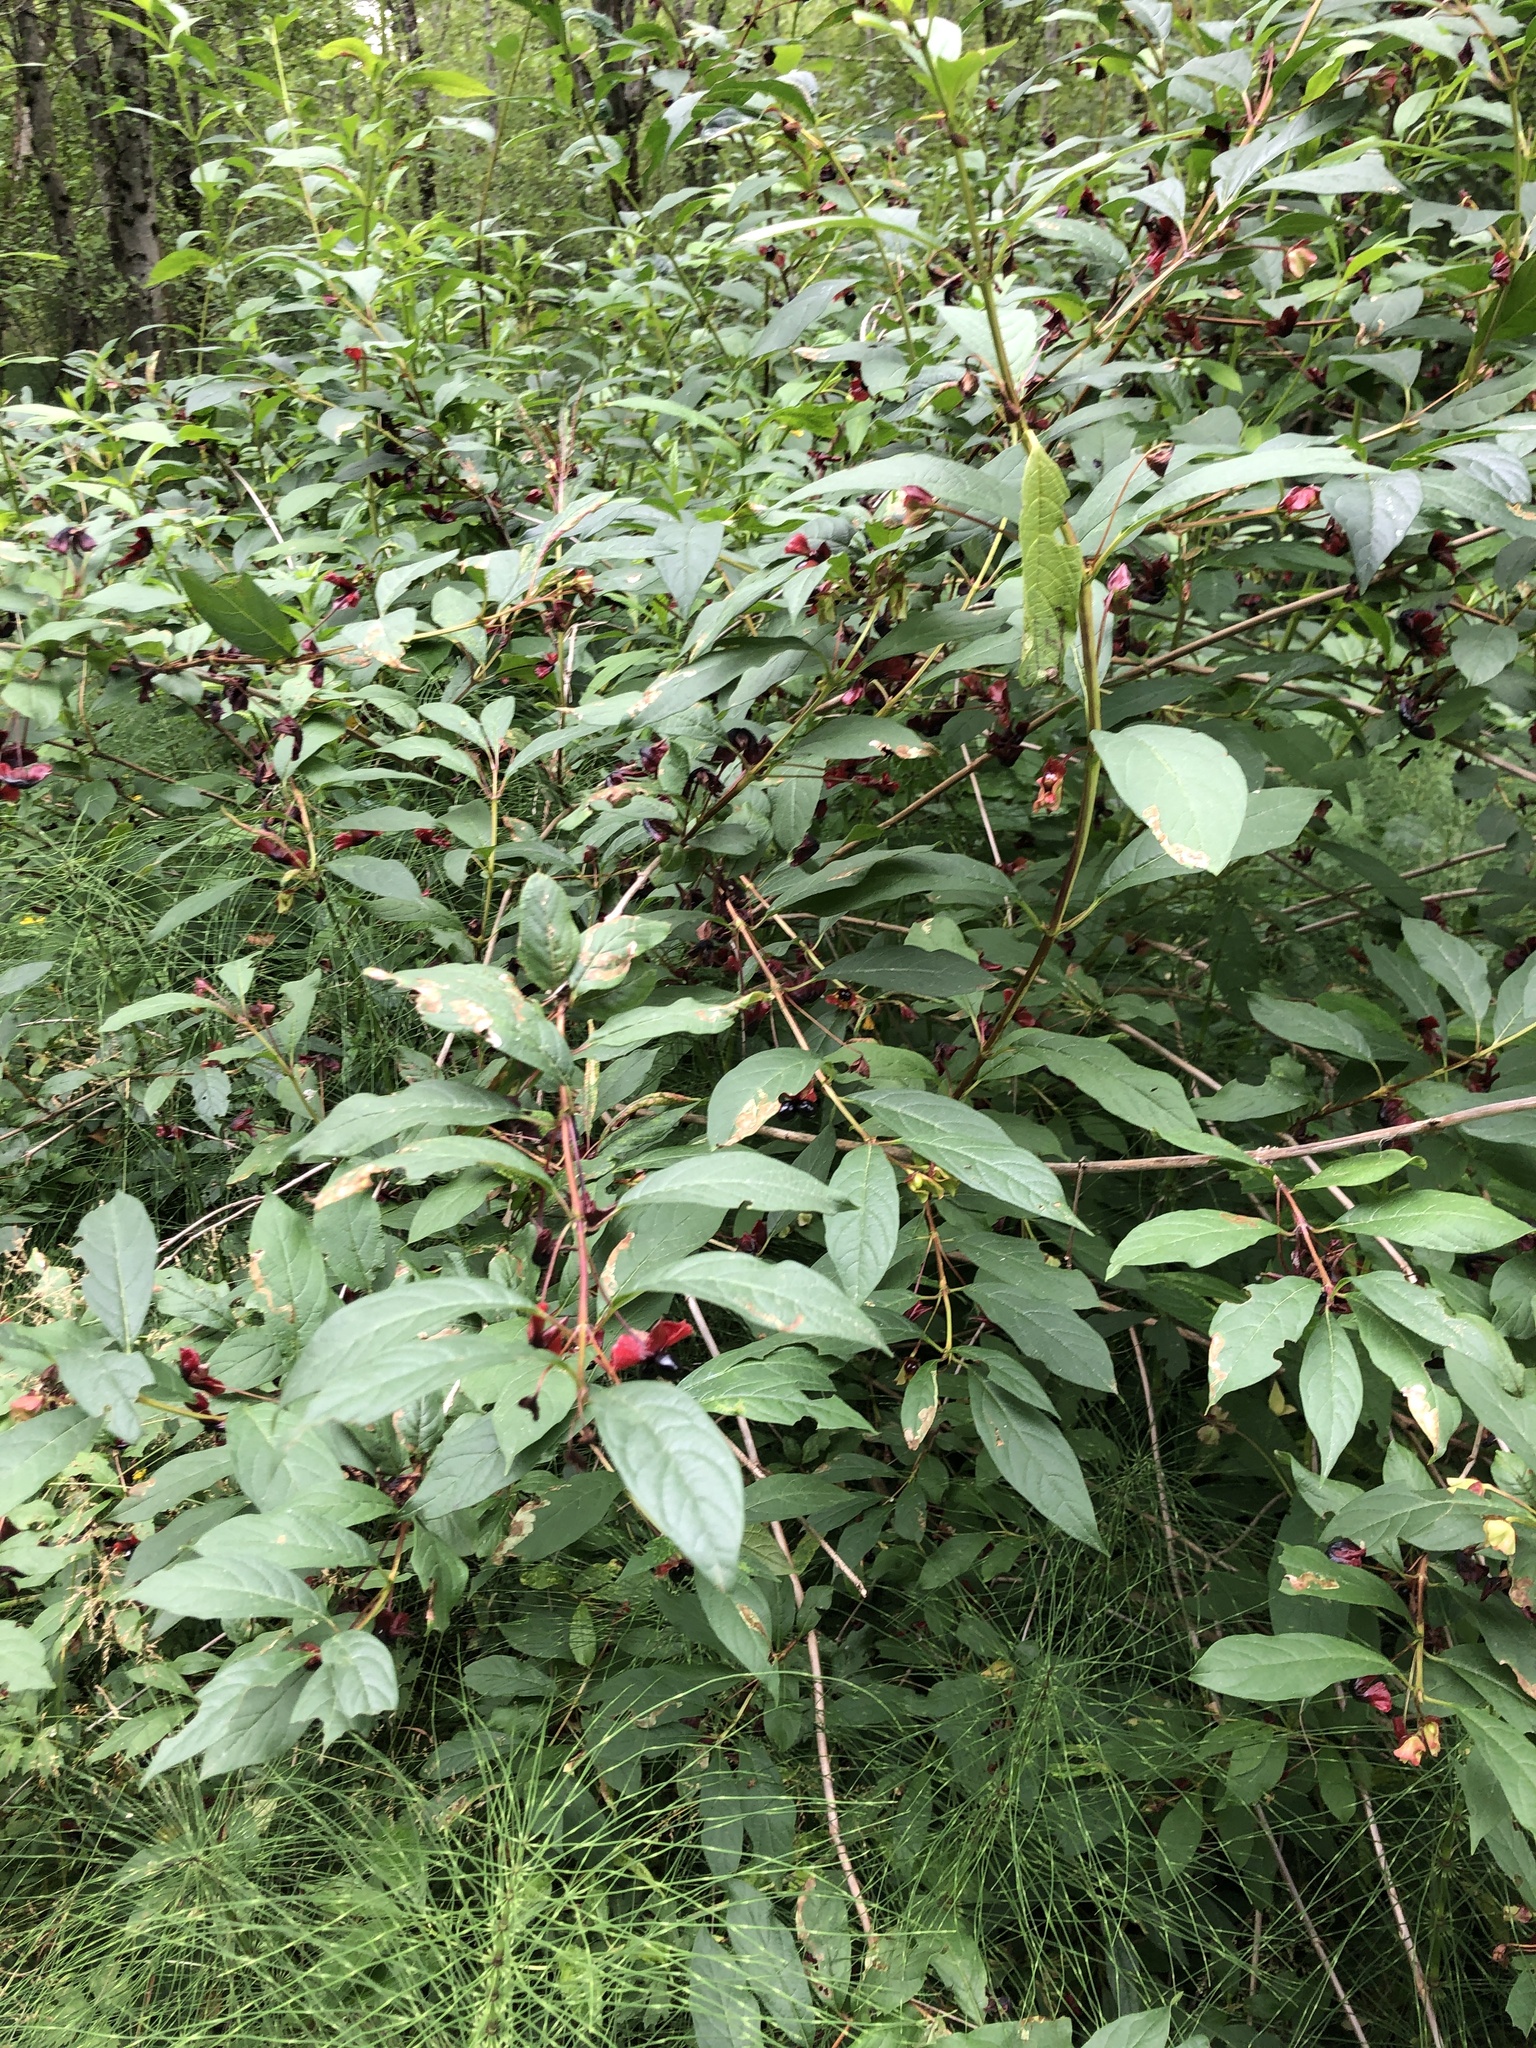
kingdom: Plantae
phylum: Tracheophyta
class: Magnoliopsida
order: Dipsacales
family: Caprifoliaceae
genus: Lonicera
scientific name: Lonicera involucrata
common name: Californian honeysuckle
